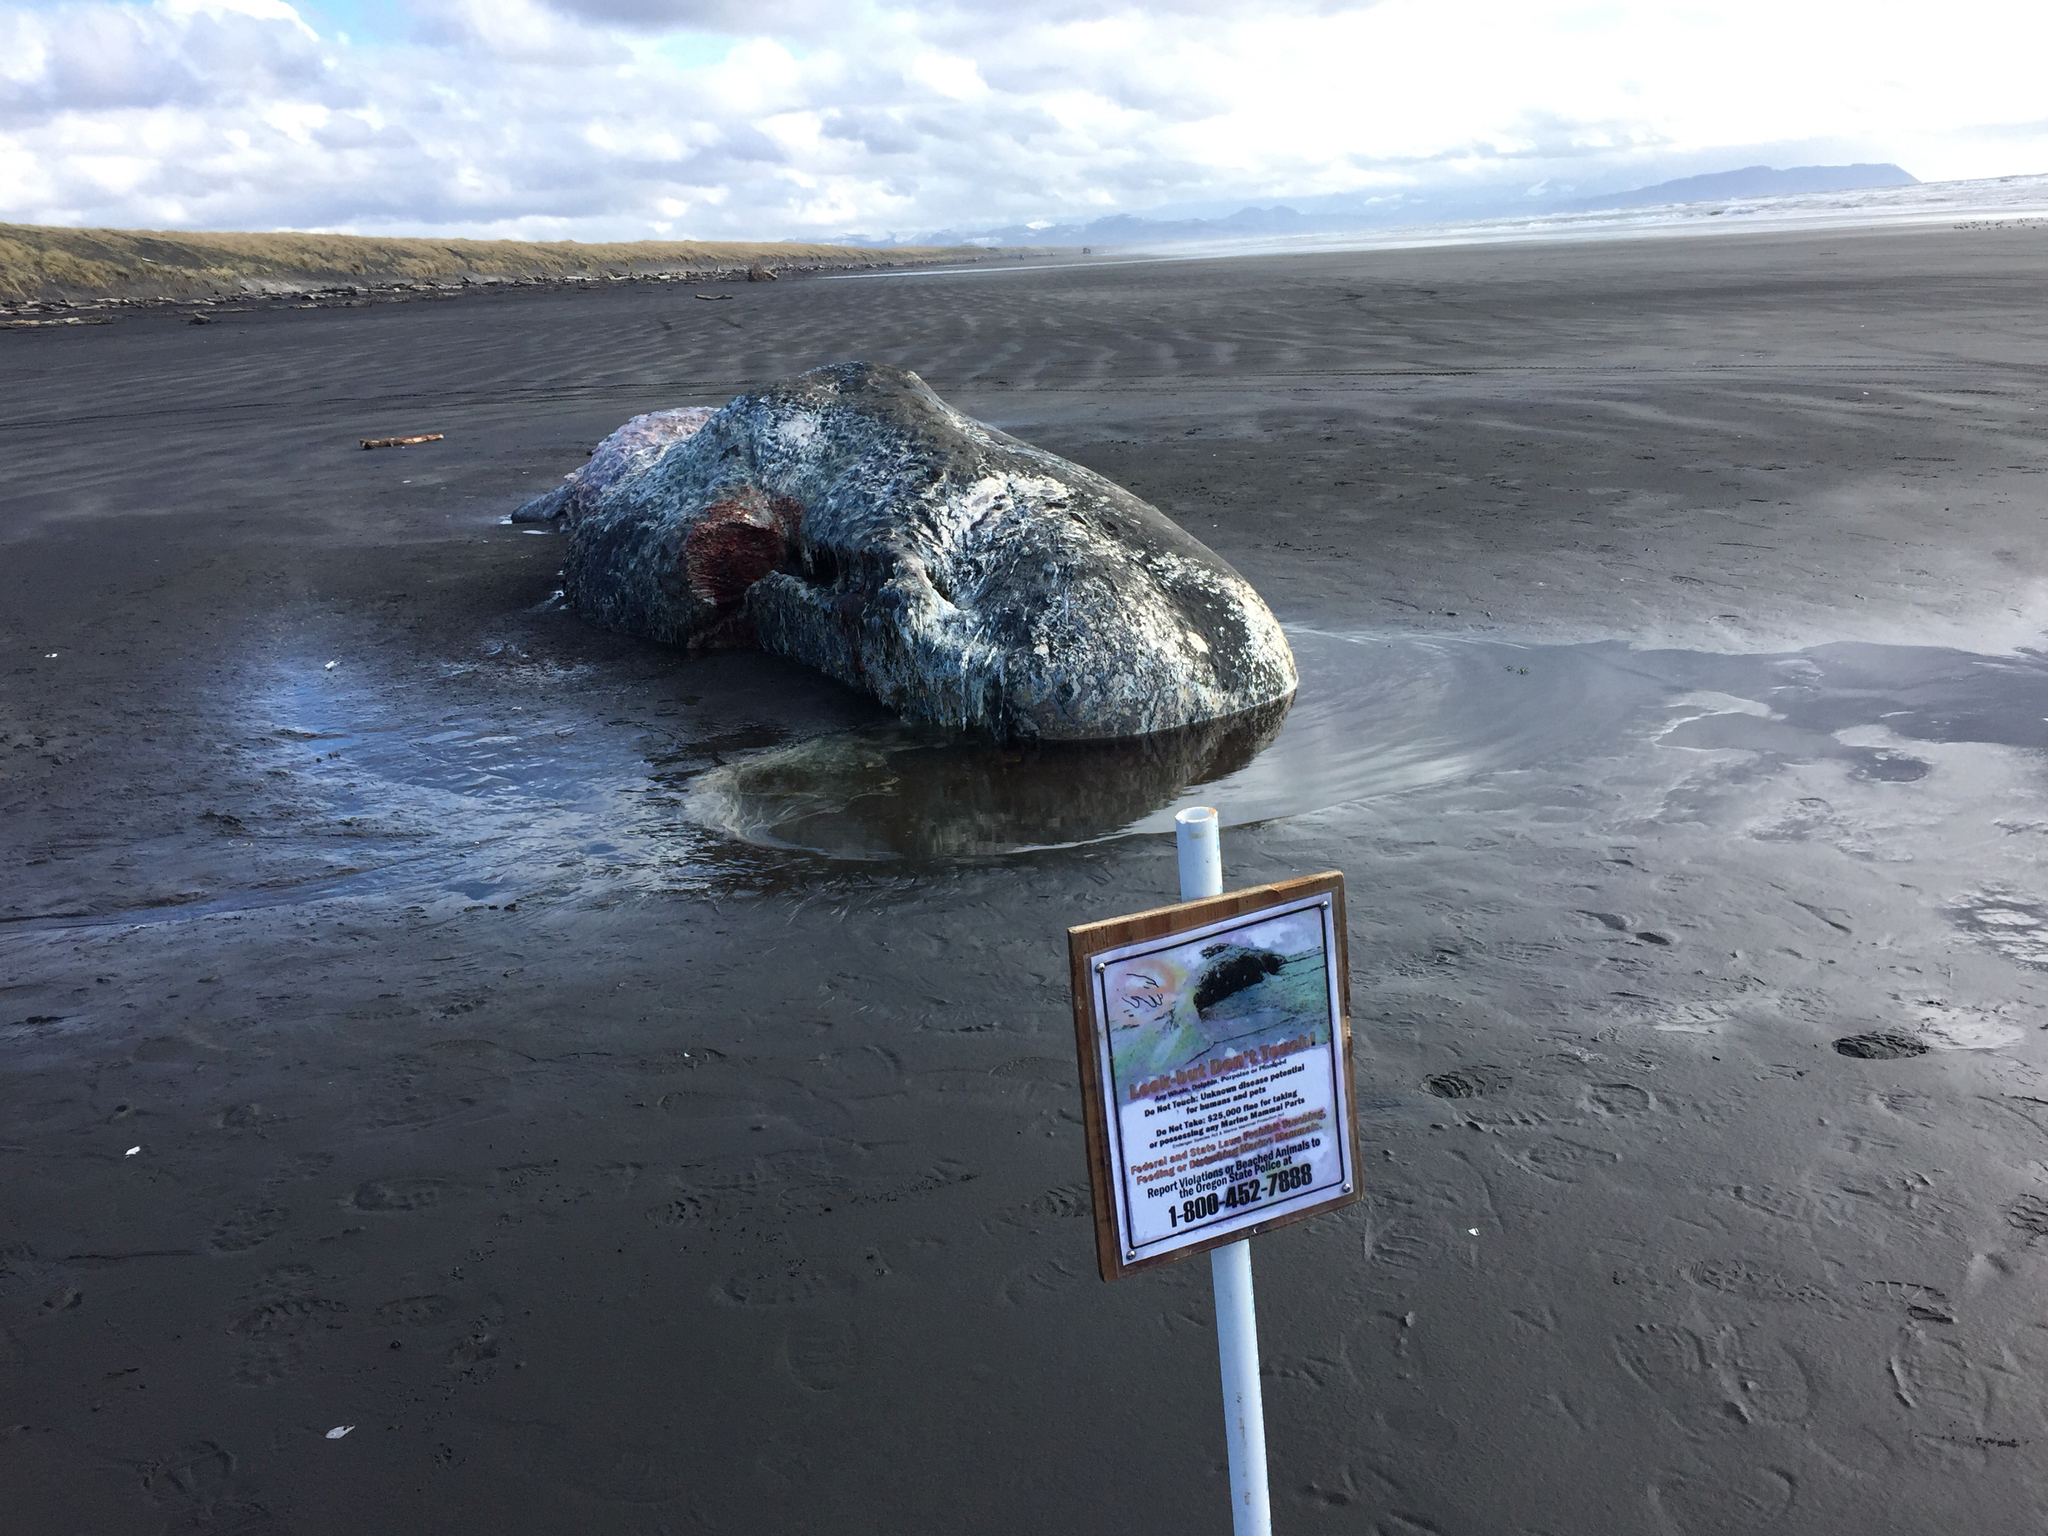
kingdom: Animalia
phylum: Chordata
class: Mammalia
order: Cetacea
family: Physeteridae
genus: Physeter
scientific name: Physeter macrocephalus
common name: Sperm whale
